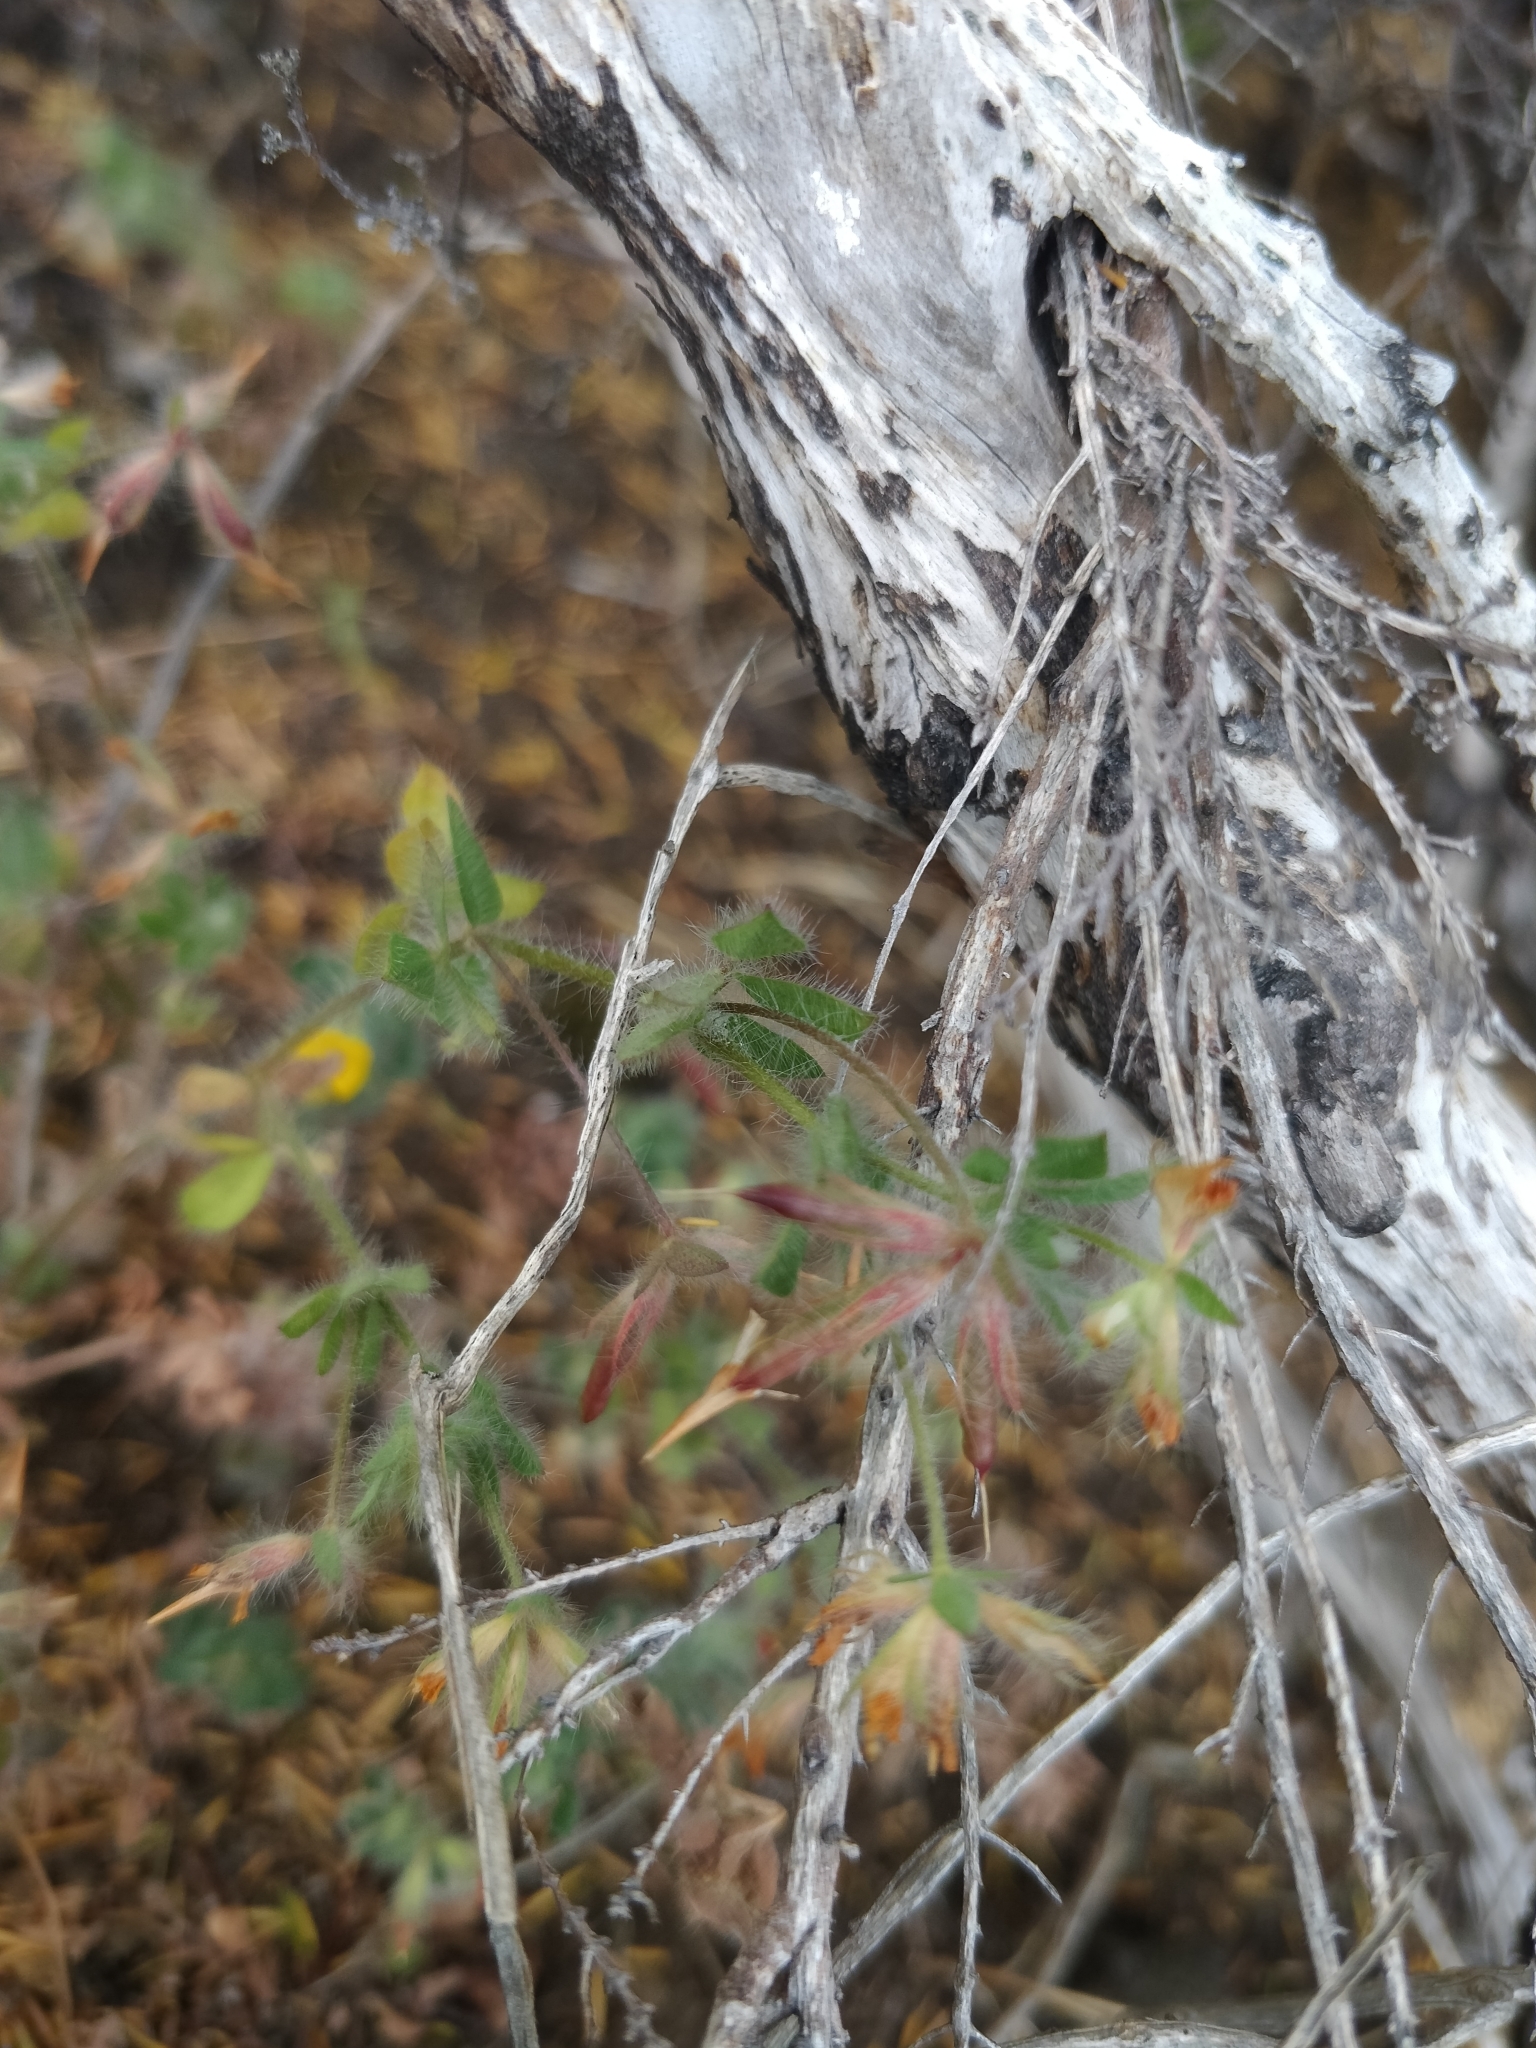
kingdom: Plantae
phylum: Tracheophyta
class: Magnoliopsida
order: Fabales
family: Fabaceae
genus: Lotus
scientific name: Lotus hispidus
